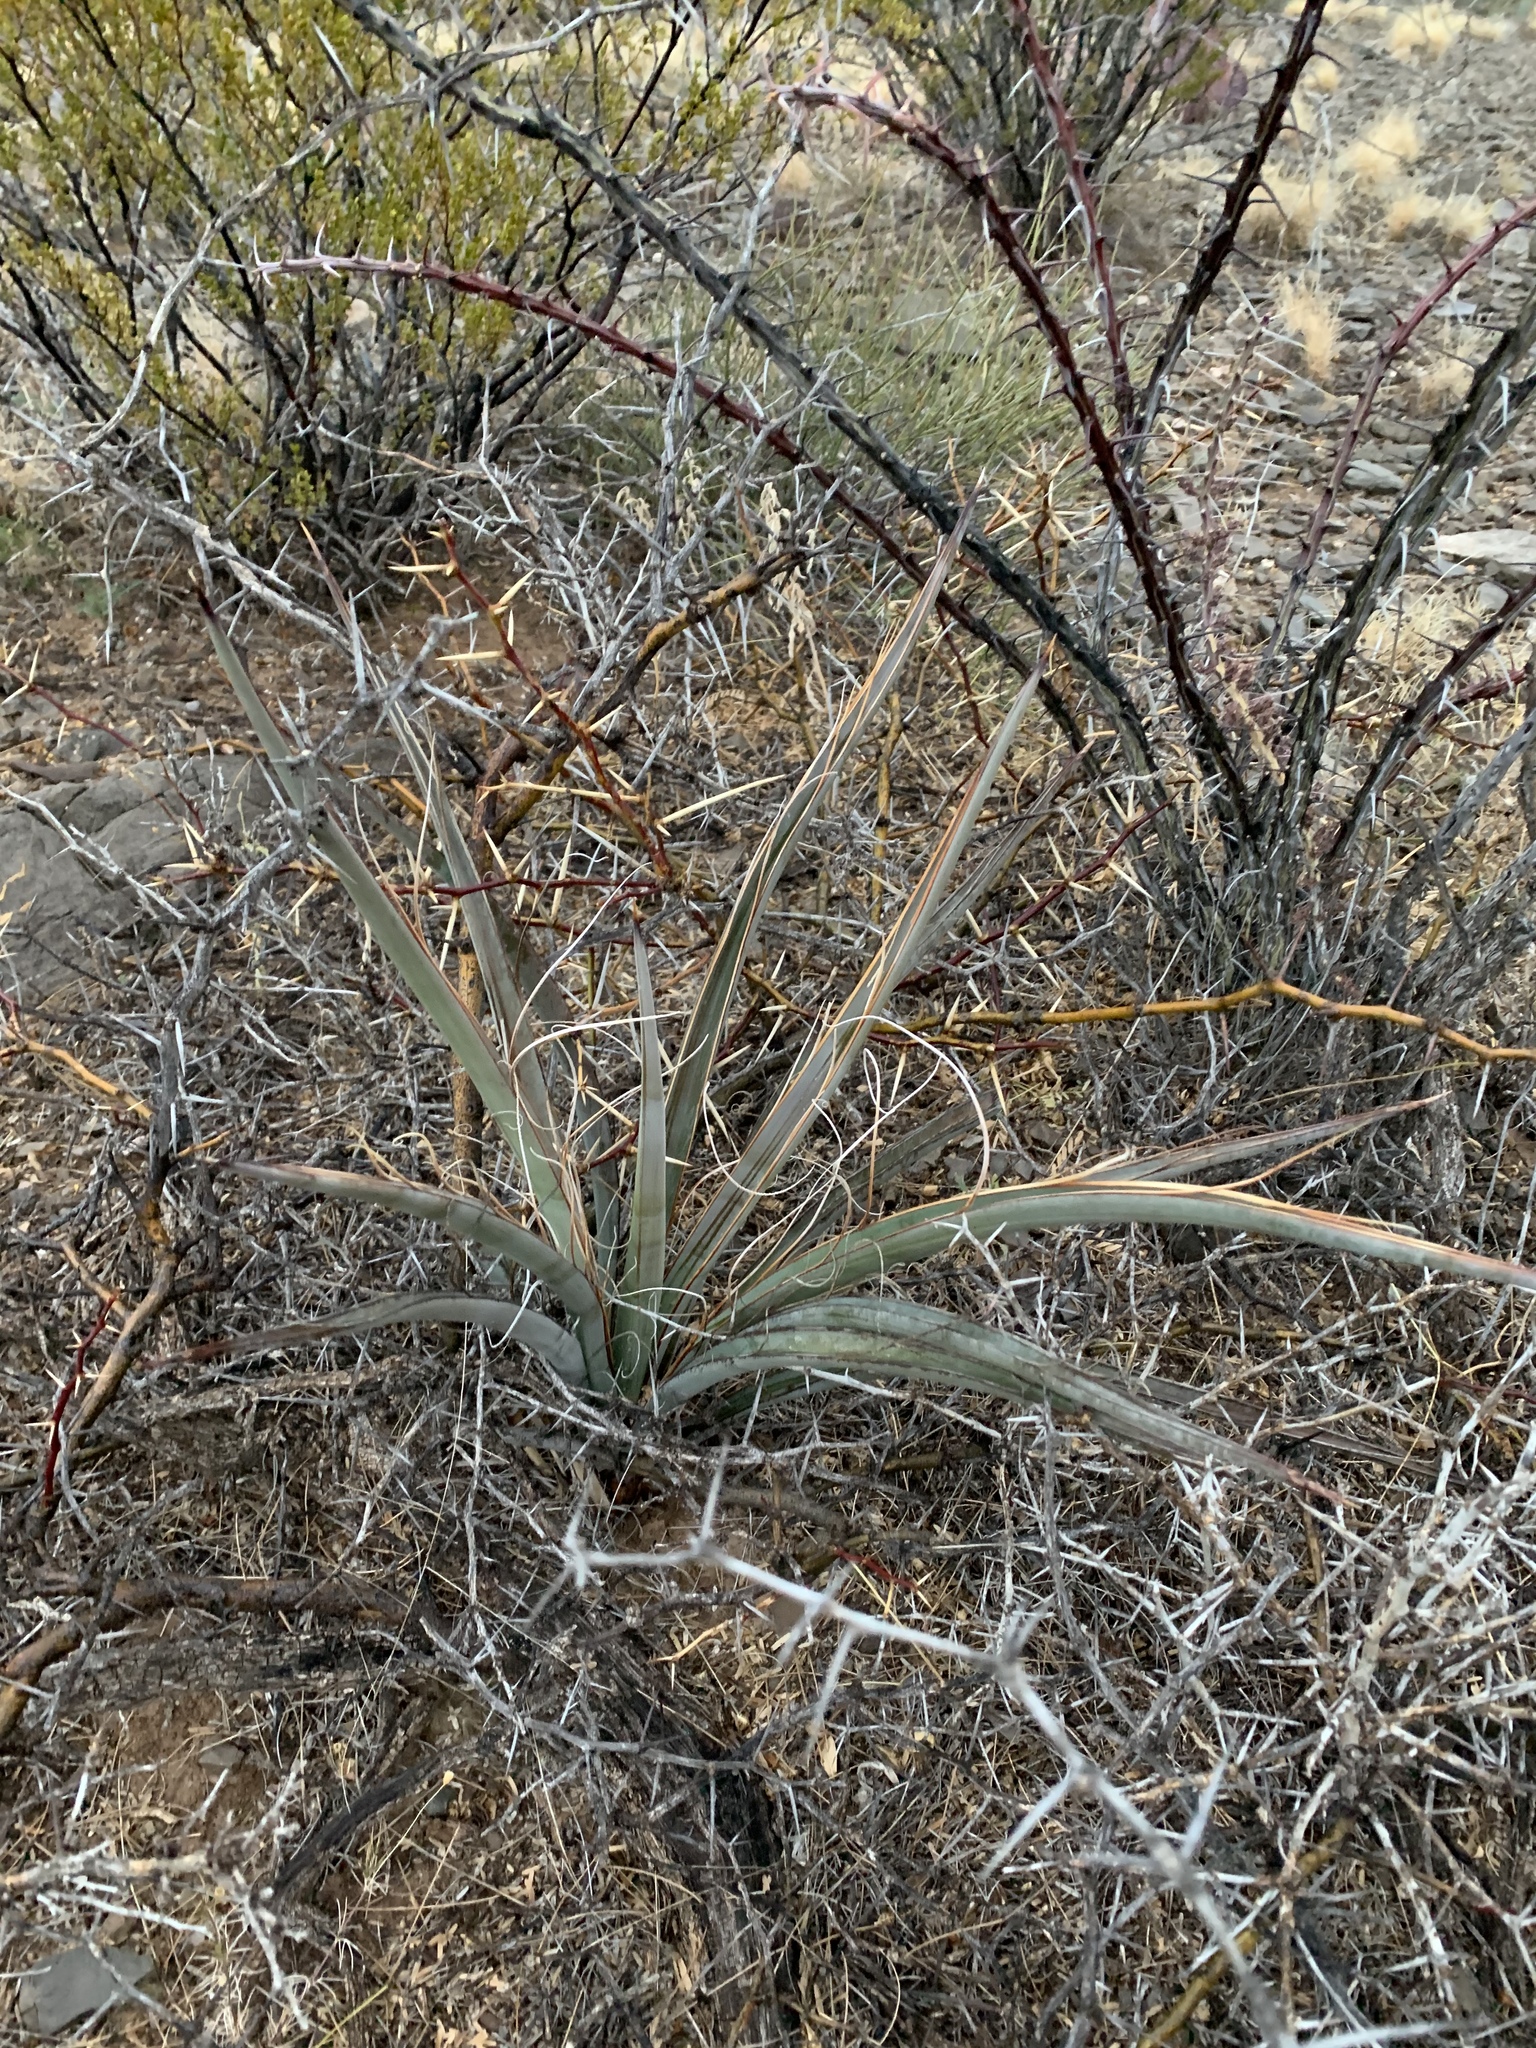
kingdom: Plantae
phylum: Tracheophyta
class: Liliopsida
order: Asparagales
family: Asparagaceae
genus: Yucca
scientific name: Yucca baccata
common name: Banana yucca
